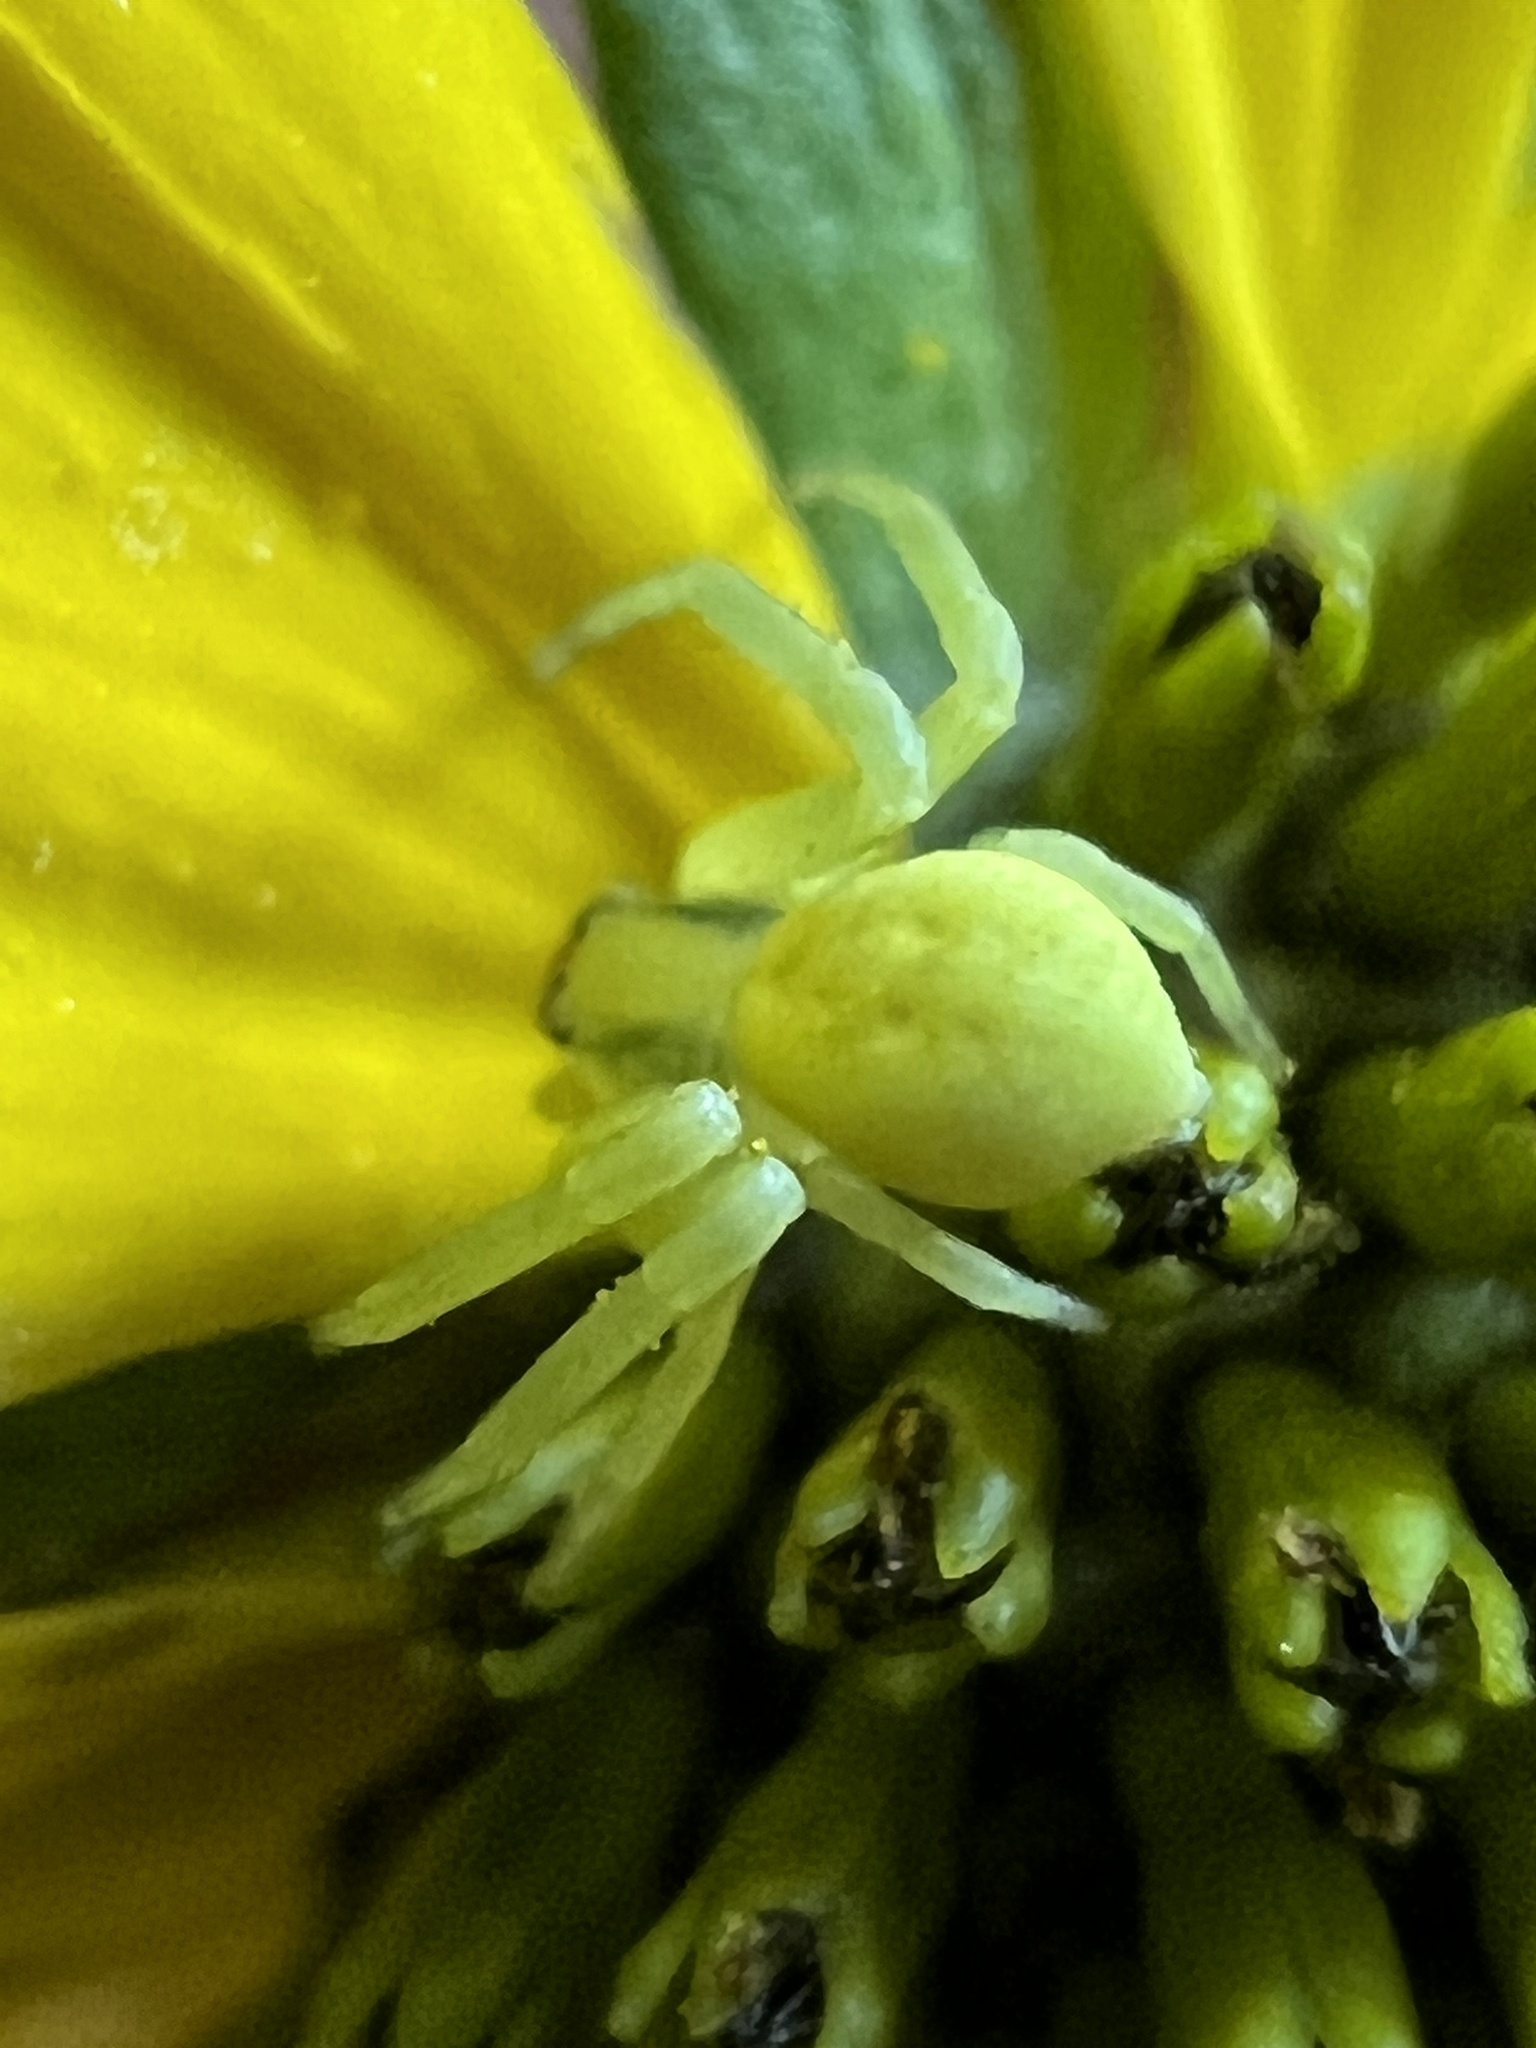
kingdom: Animalia
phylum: Arthropoda
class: Arachnida
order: Araneae
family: Thomisidae
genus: Misumena
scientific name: Misumena vatia
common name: Goldenrod crab spider
